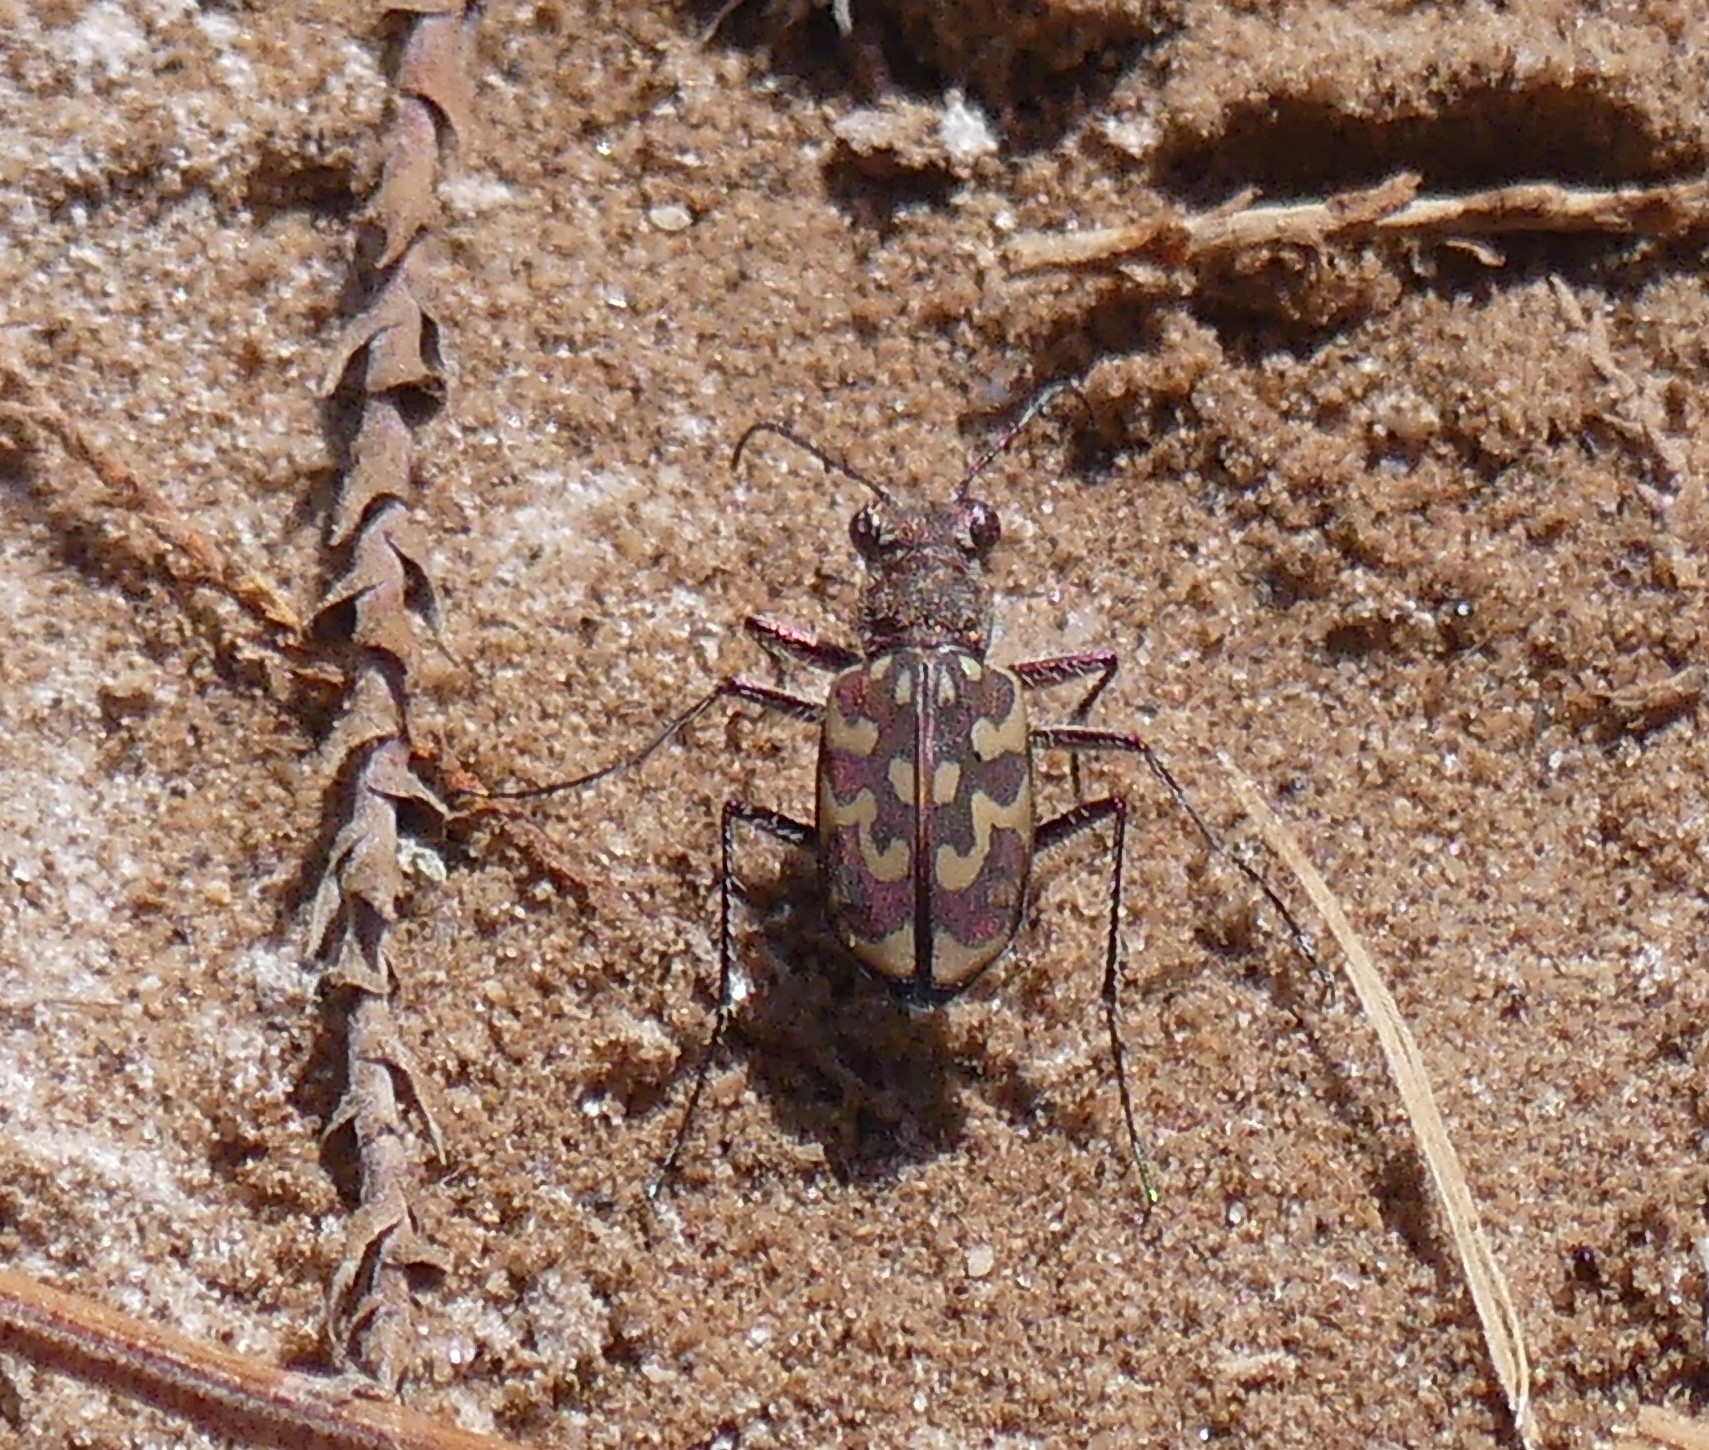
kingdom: Animalia
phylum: Arthropoda
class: Insecta
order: Coleoptera
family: Carabidae
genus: Lophyra
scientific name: Lophyra flexuosa
